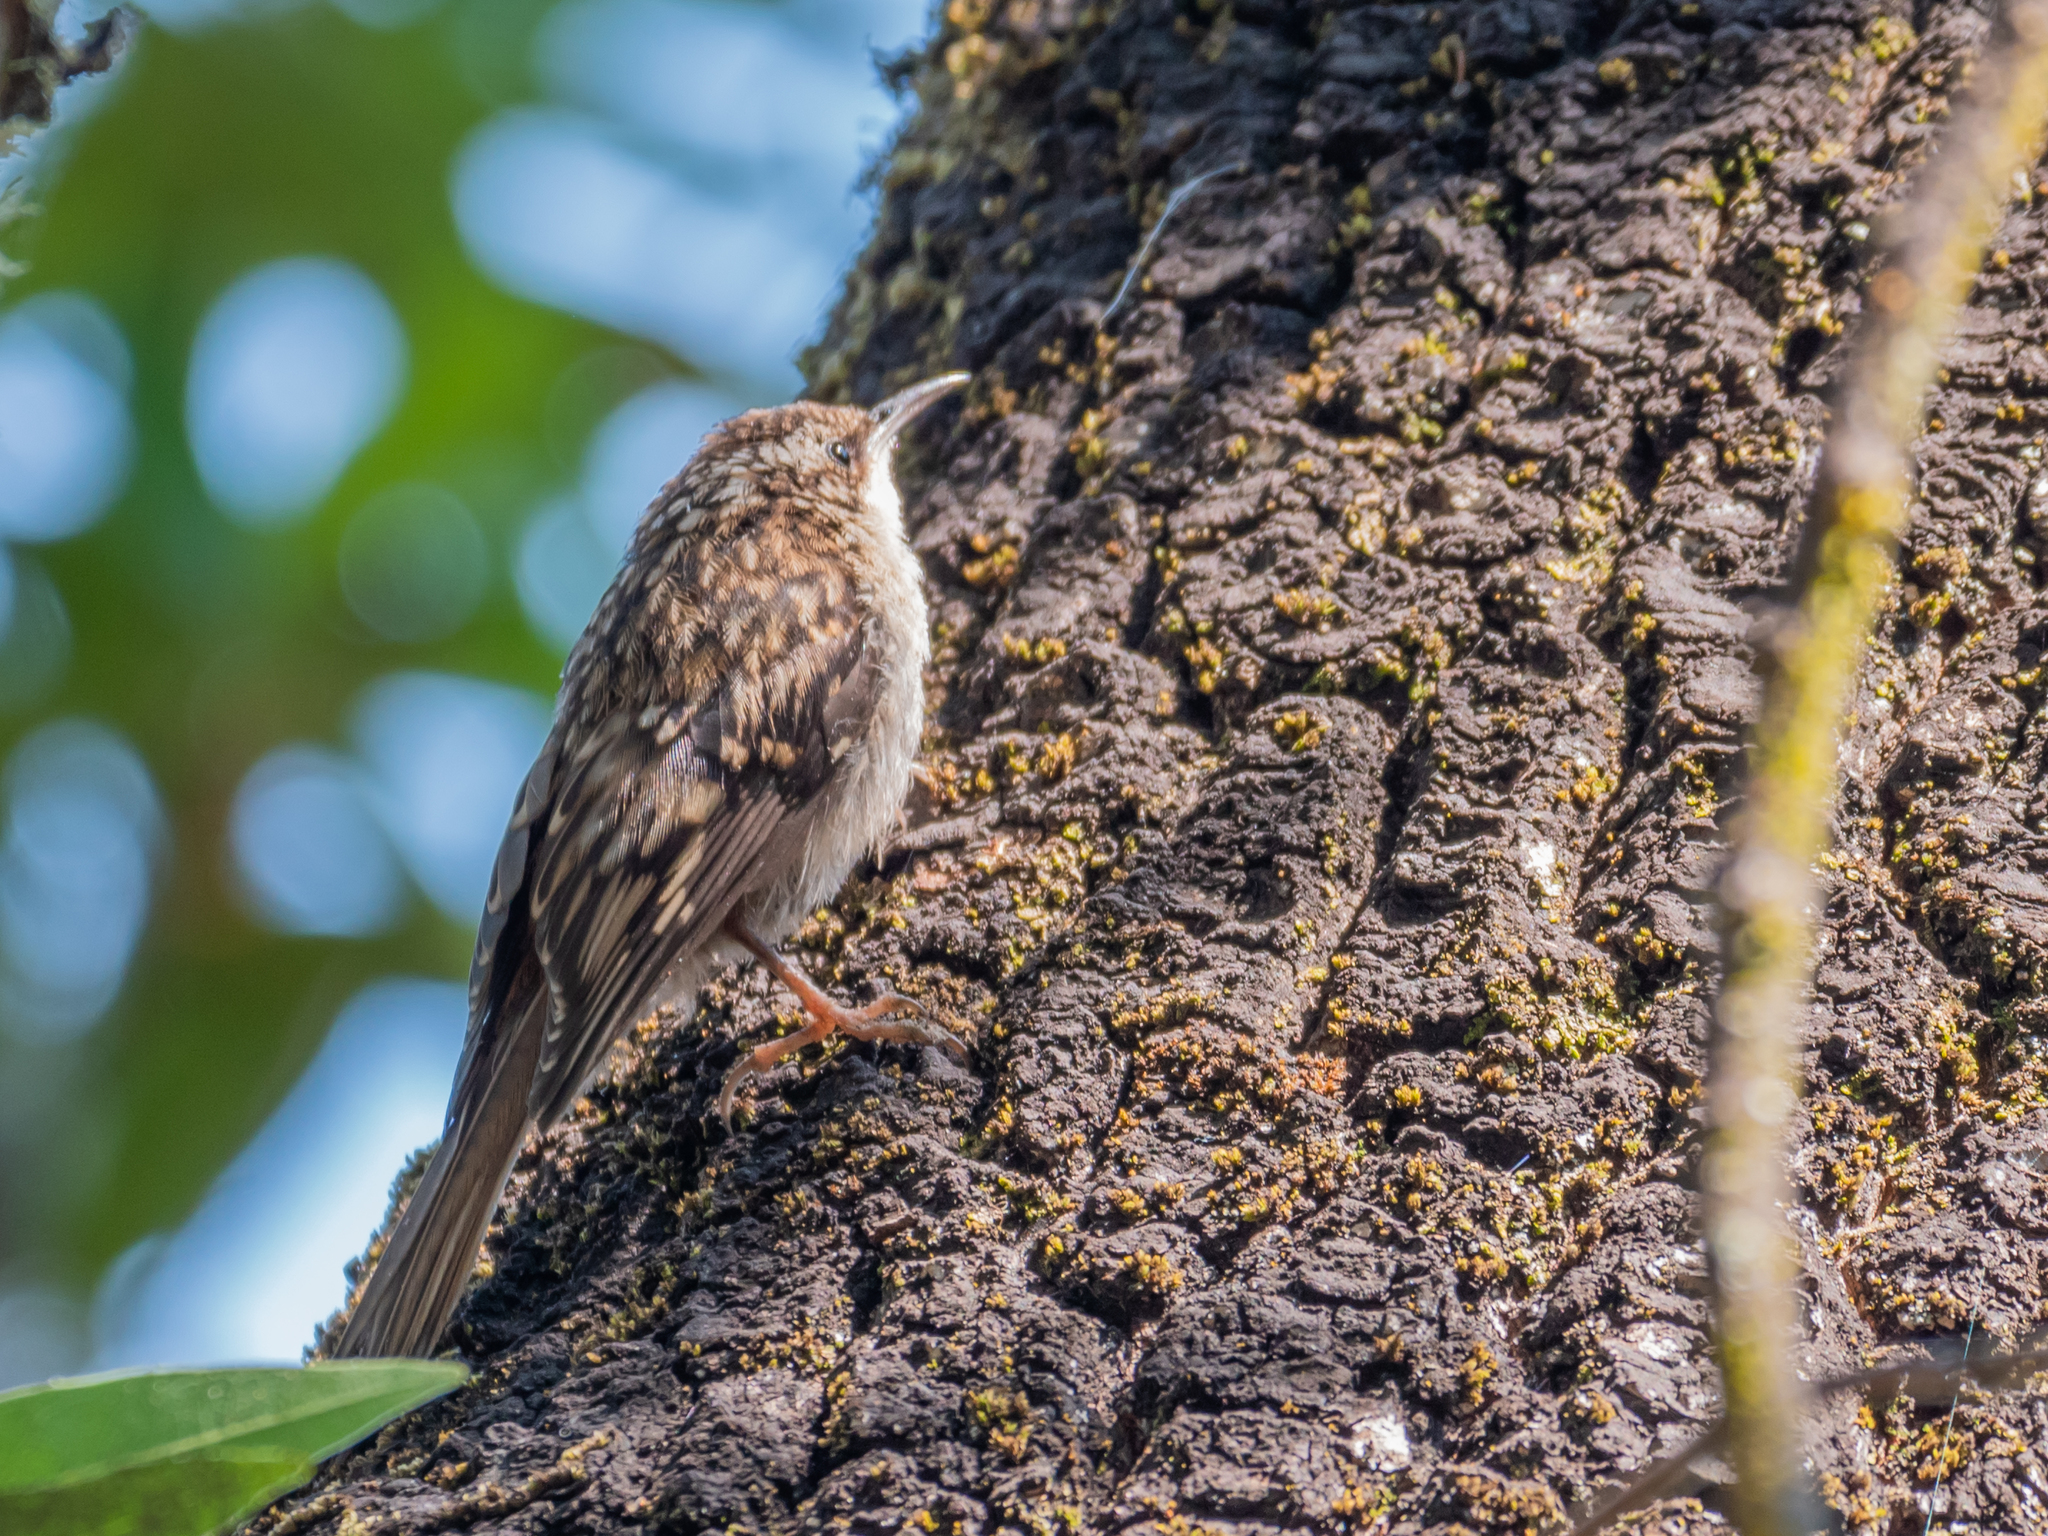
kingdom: Animalia
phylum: Chordata
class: Aves
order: Passeriformes
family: Certhiidae
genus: Certhia
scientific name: Certhia americana
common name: Brown creeper
